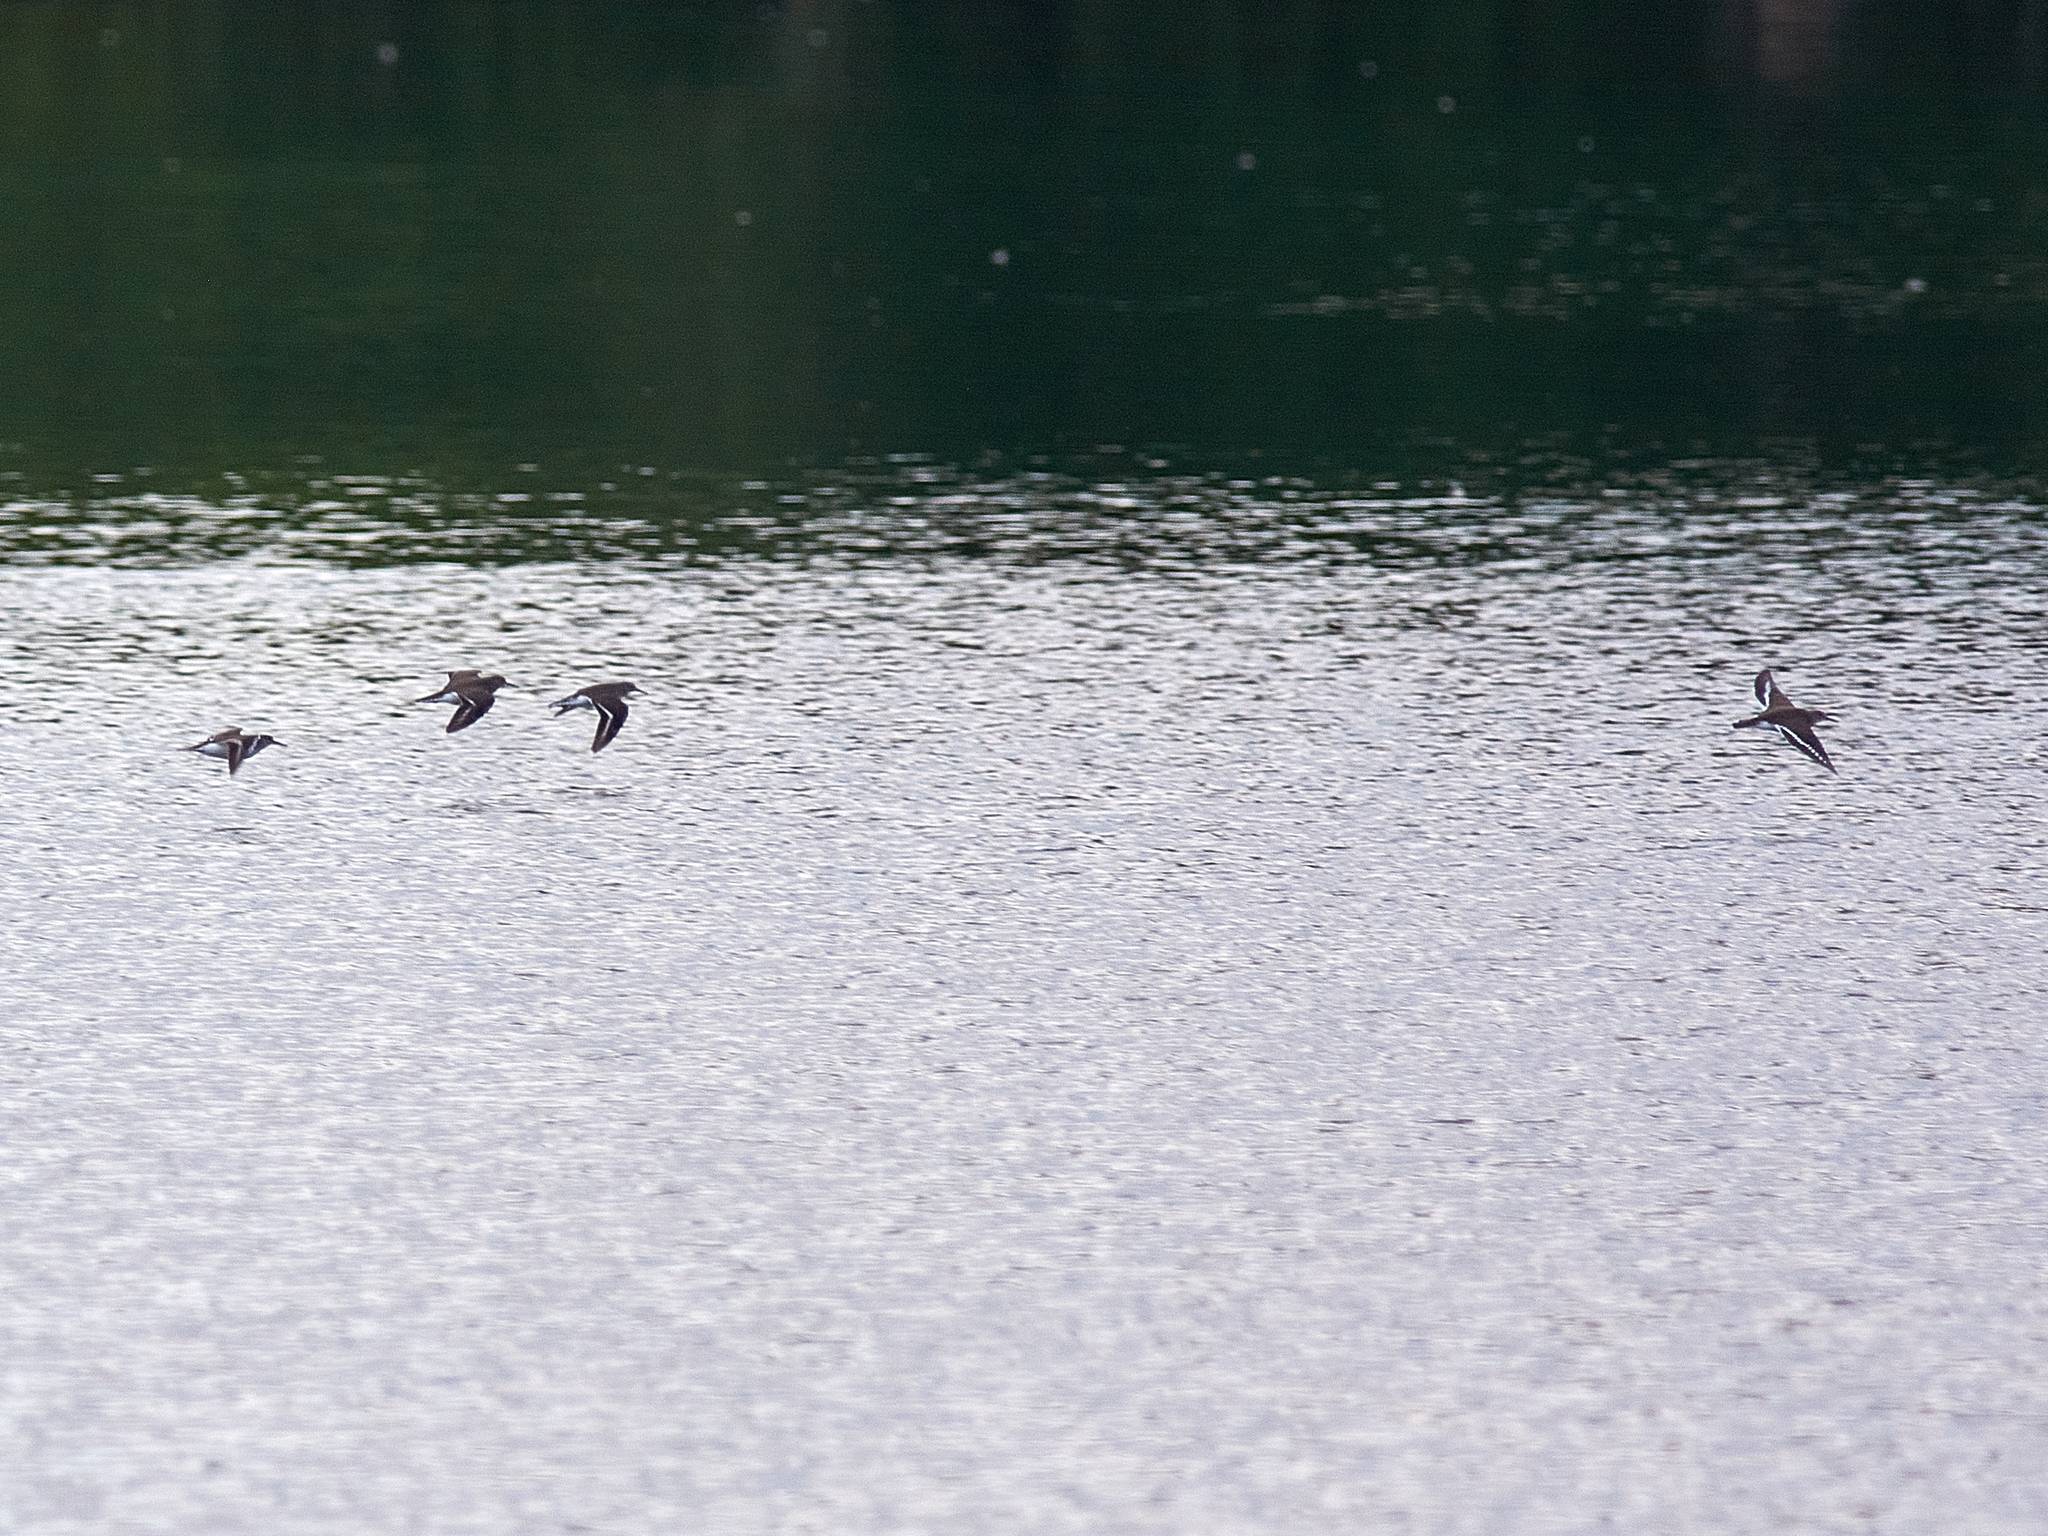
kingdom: Animalia
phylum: Chordata
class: Aves
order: Charadriiformes
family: Scolopacidae
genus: Actitis
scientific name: Actitis hypoleucos
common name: Common sandpiper
